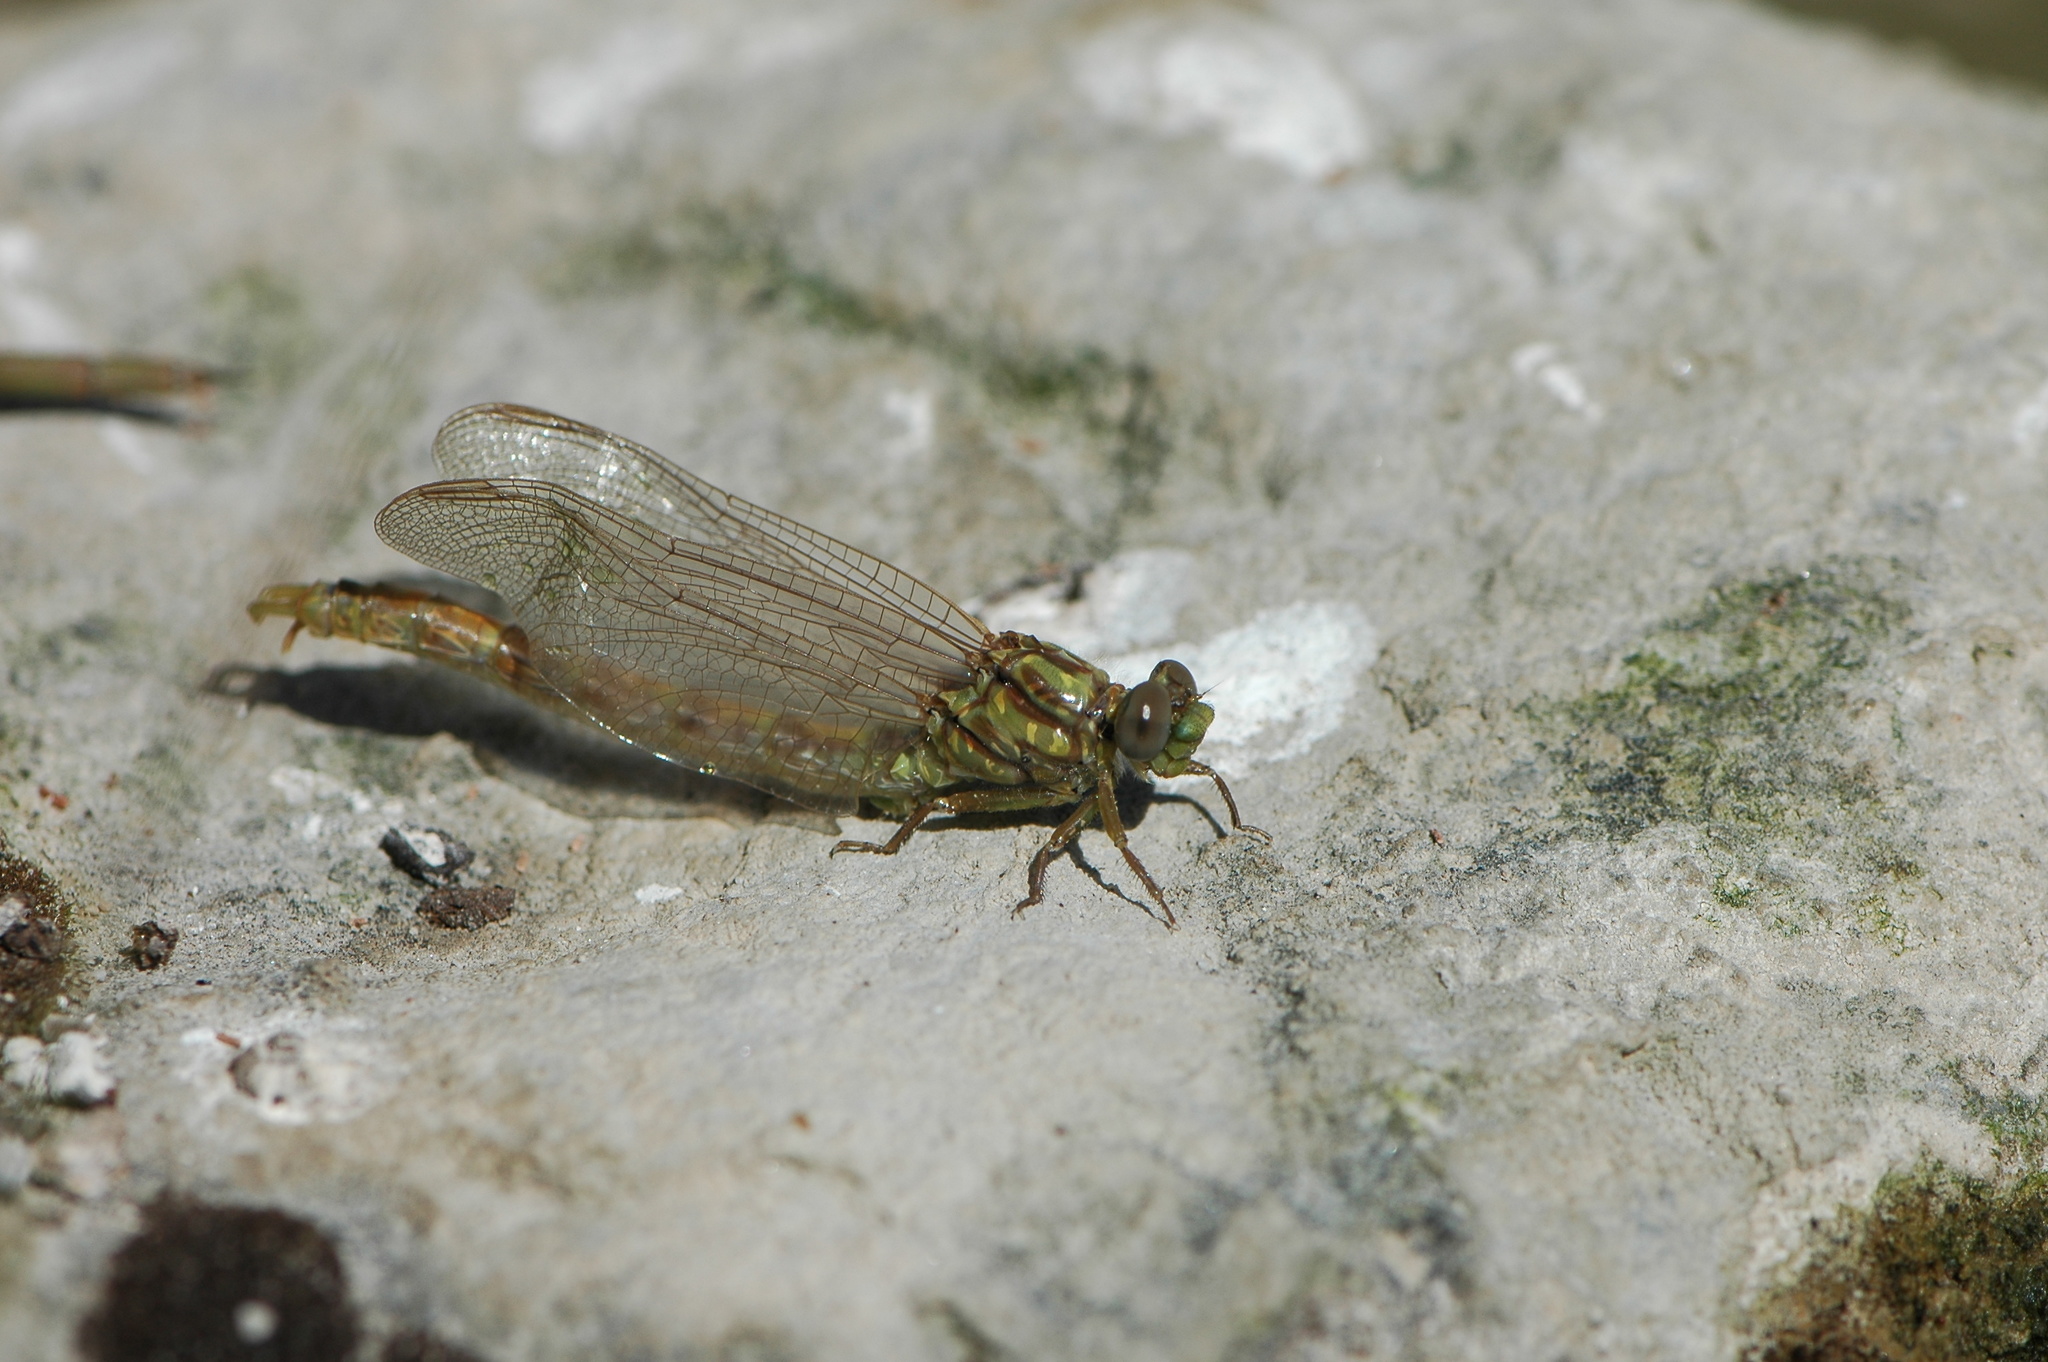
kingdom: Animalia
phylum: Arthropoda
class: Insecta
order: Odonata
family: Gomphidae
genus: Onychogomphus
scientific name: Onychogomphus uncatus
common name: Large pincertail
